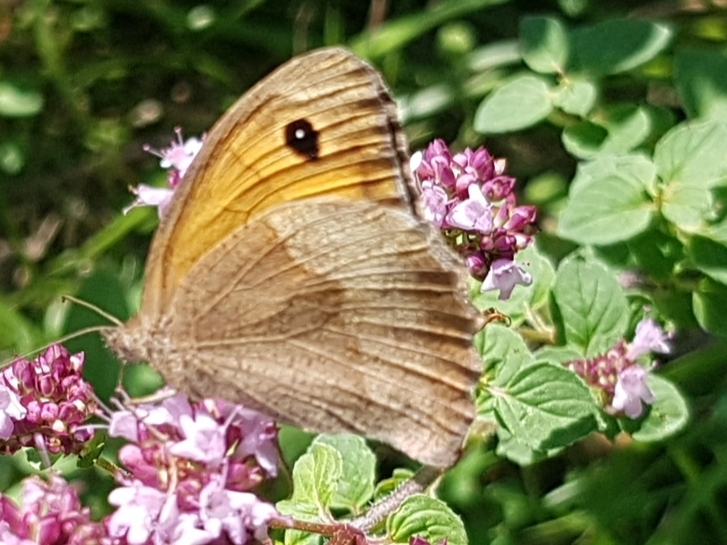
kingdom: Animalia
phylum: Arthropoda
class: Insecta
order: Lepidoptera
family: Nymphalidae
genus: Maniola
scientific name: Maniola jurtina
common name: Meadow brown
